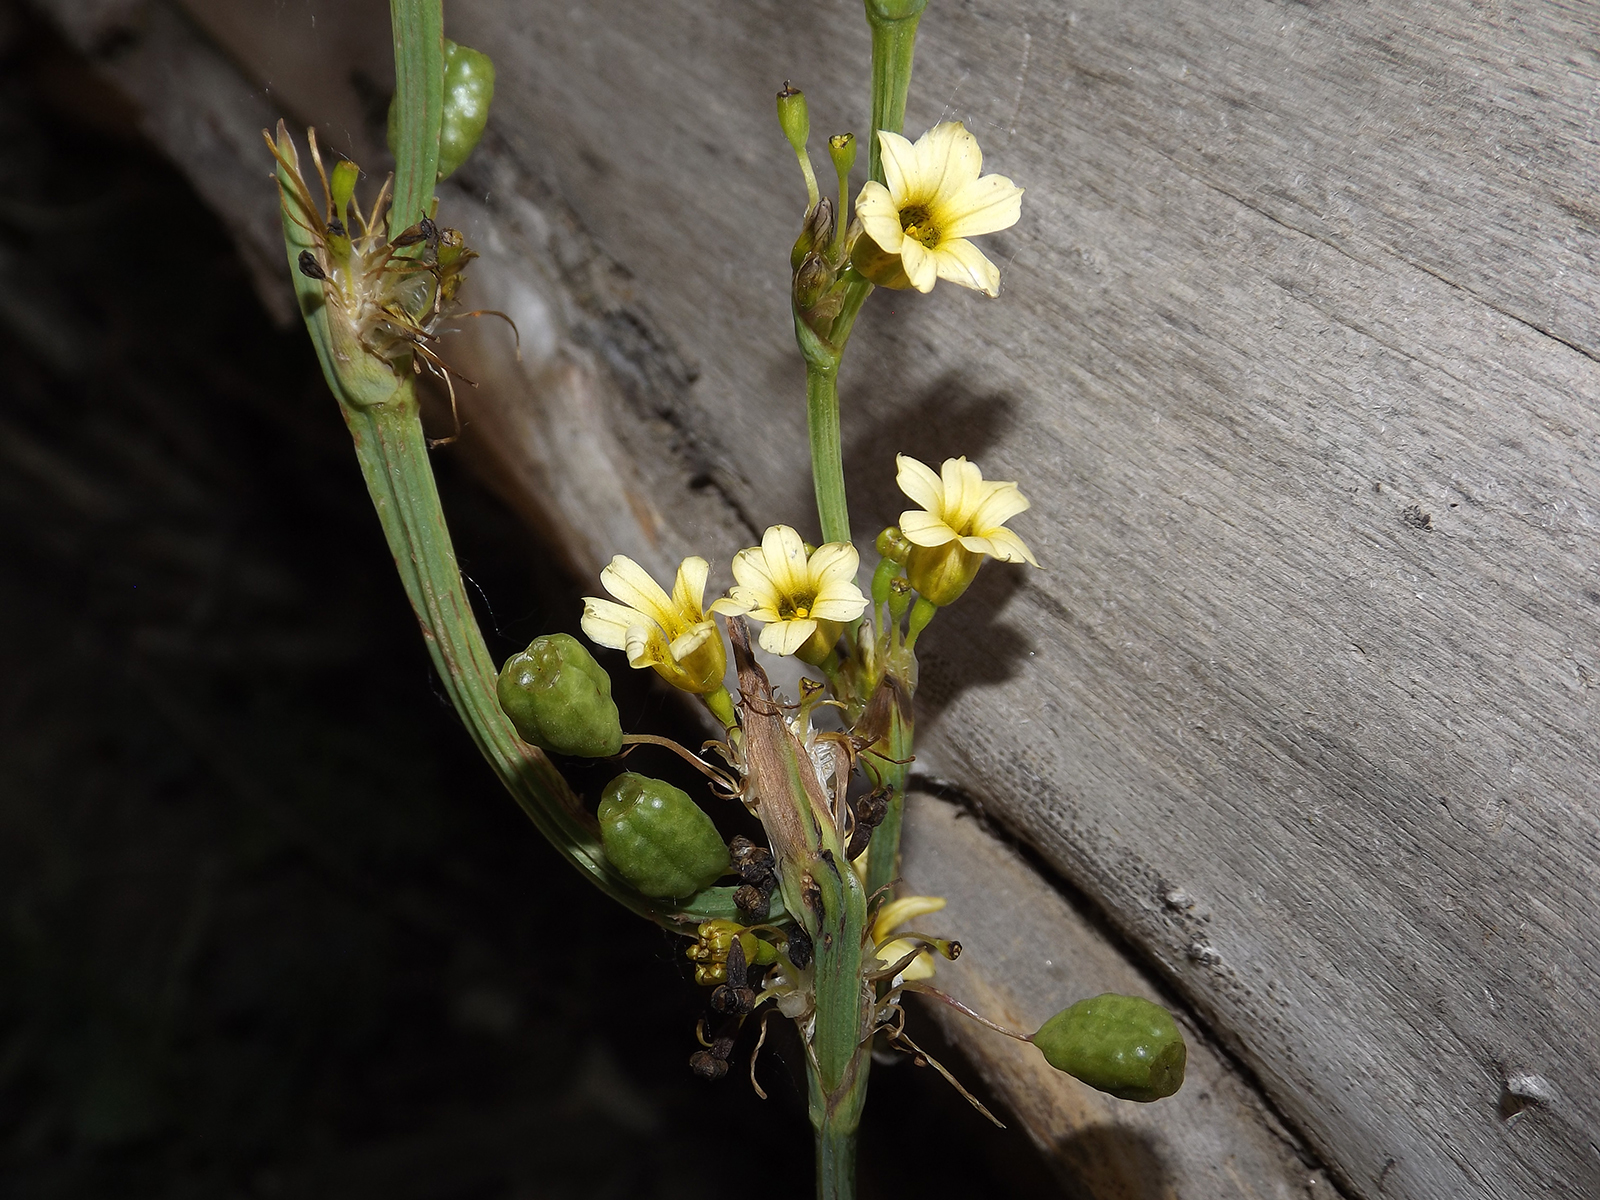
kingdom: Plantae
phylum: Tracheophyta
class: Liliopsida
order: Asparagales
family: Iridaceae
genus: Sisyrinchium
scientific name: Sisyrinchium striatum
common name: Pale yellow-eyed-grass
